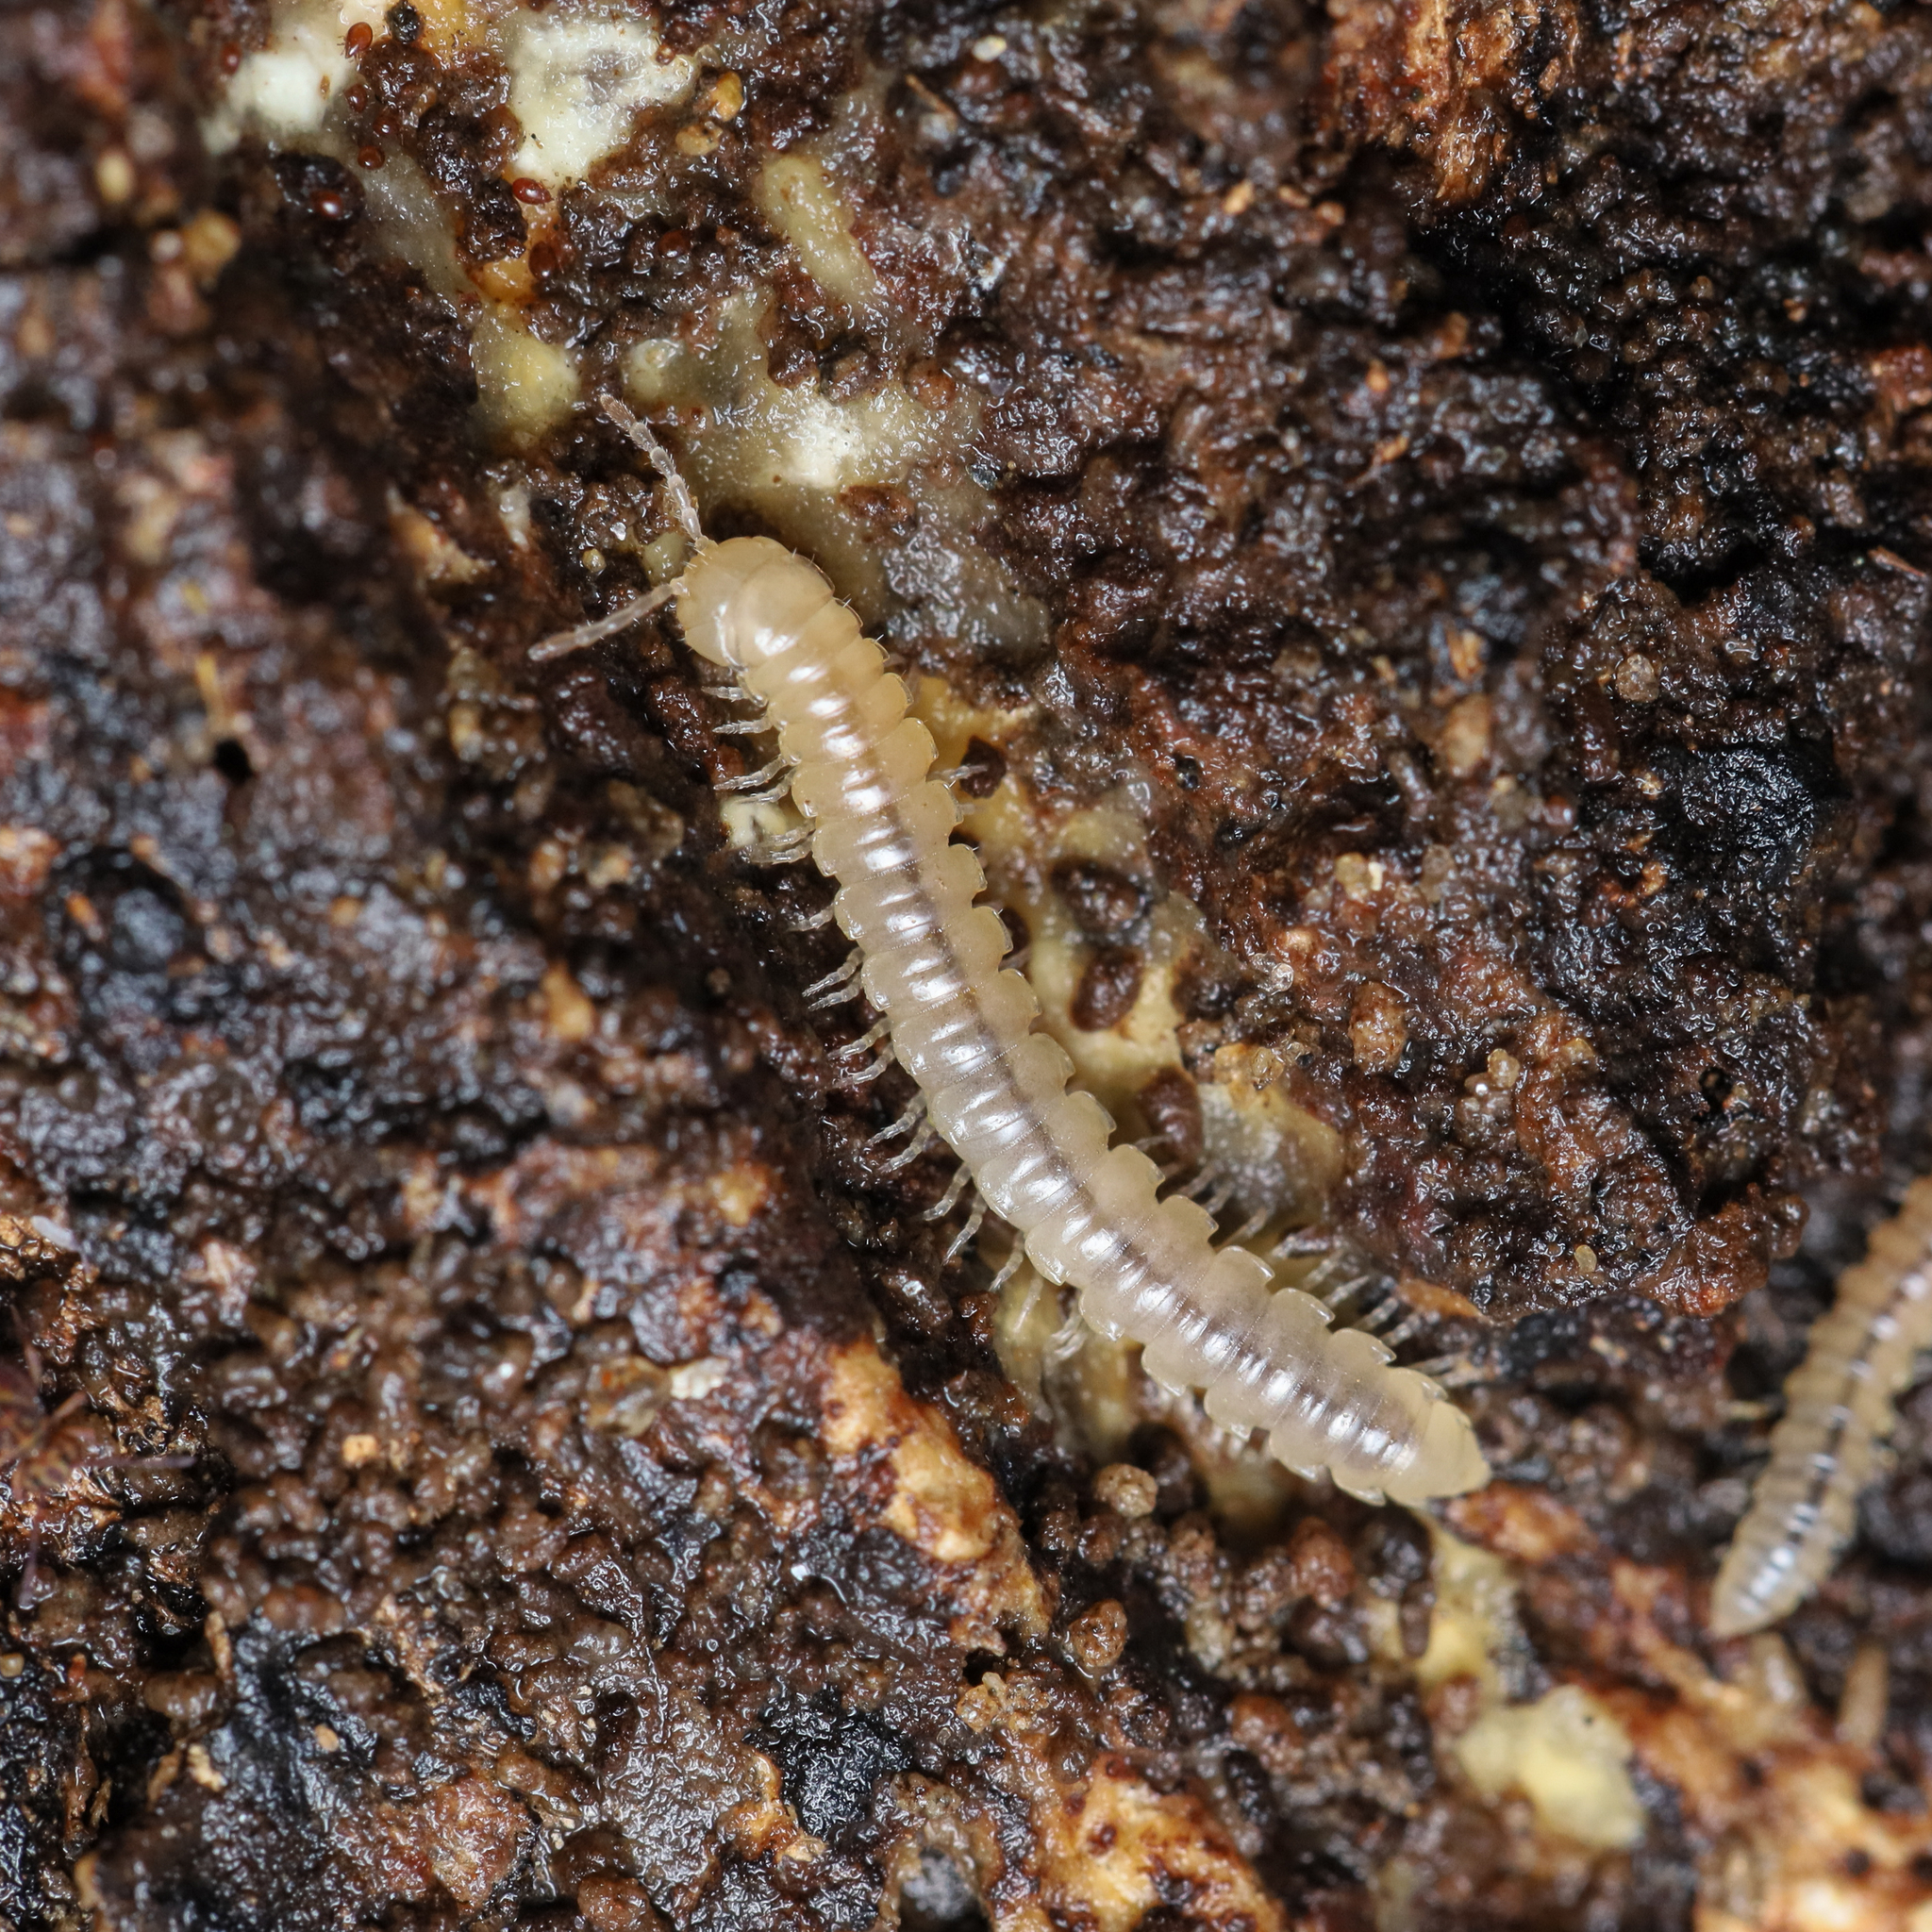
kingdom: Animalia
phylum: Arthropoda
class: Diplopoda
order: Polydesmida
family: Paradoxosomatidae
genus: Oxidus
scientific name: Oxidus gracilis
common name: Greenhouse millipede
